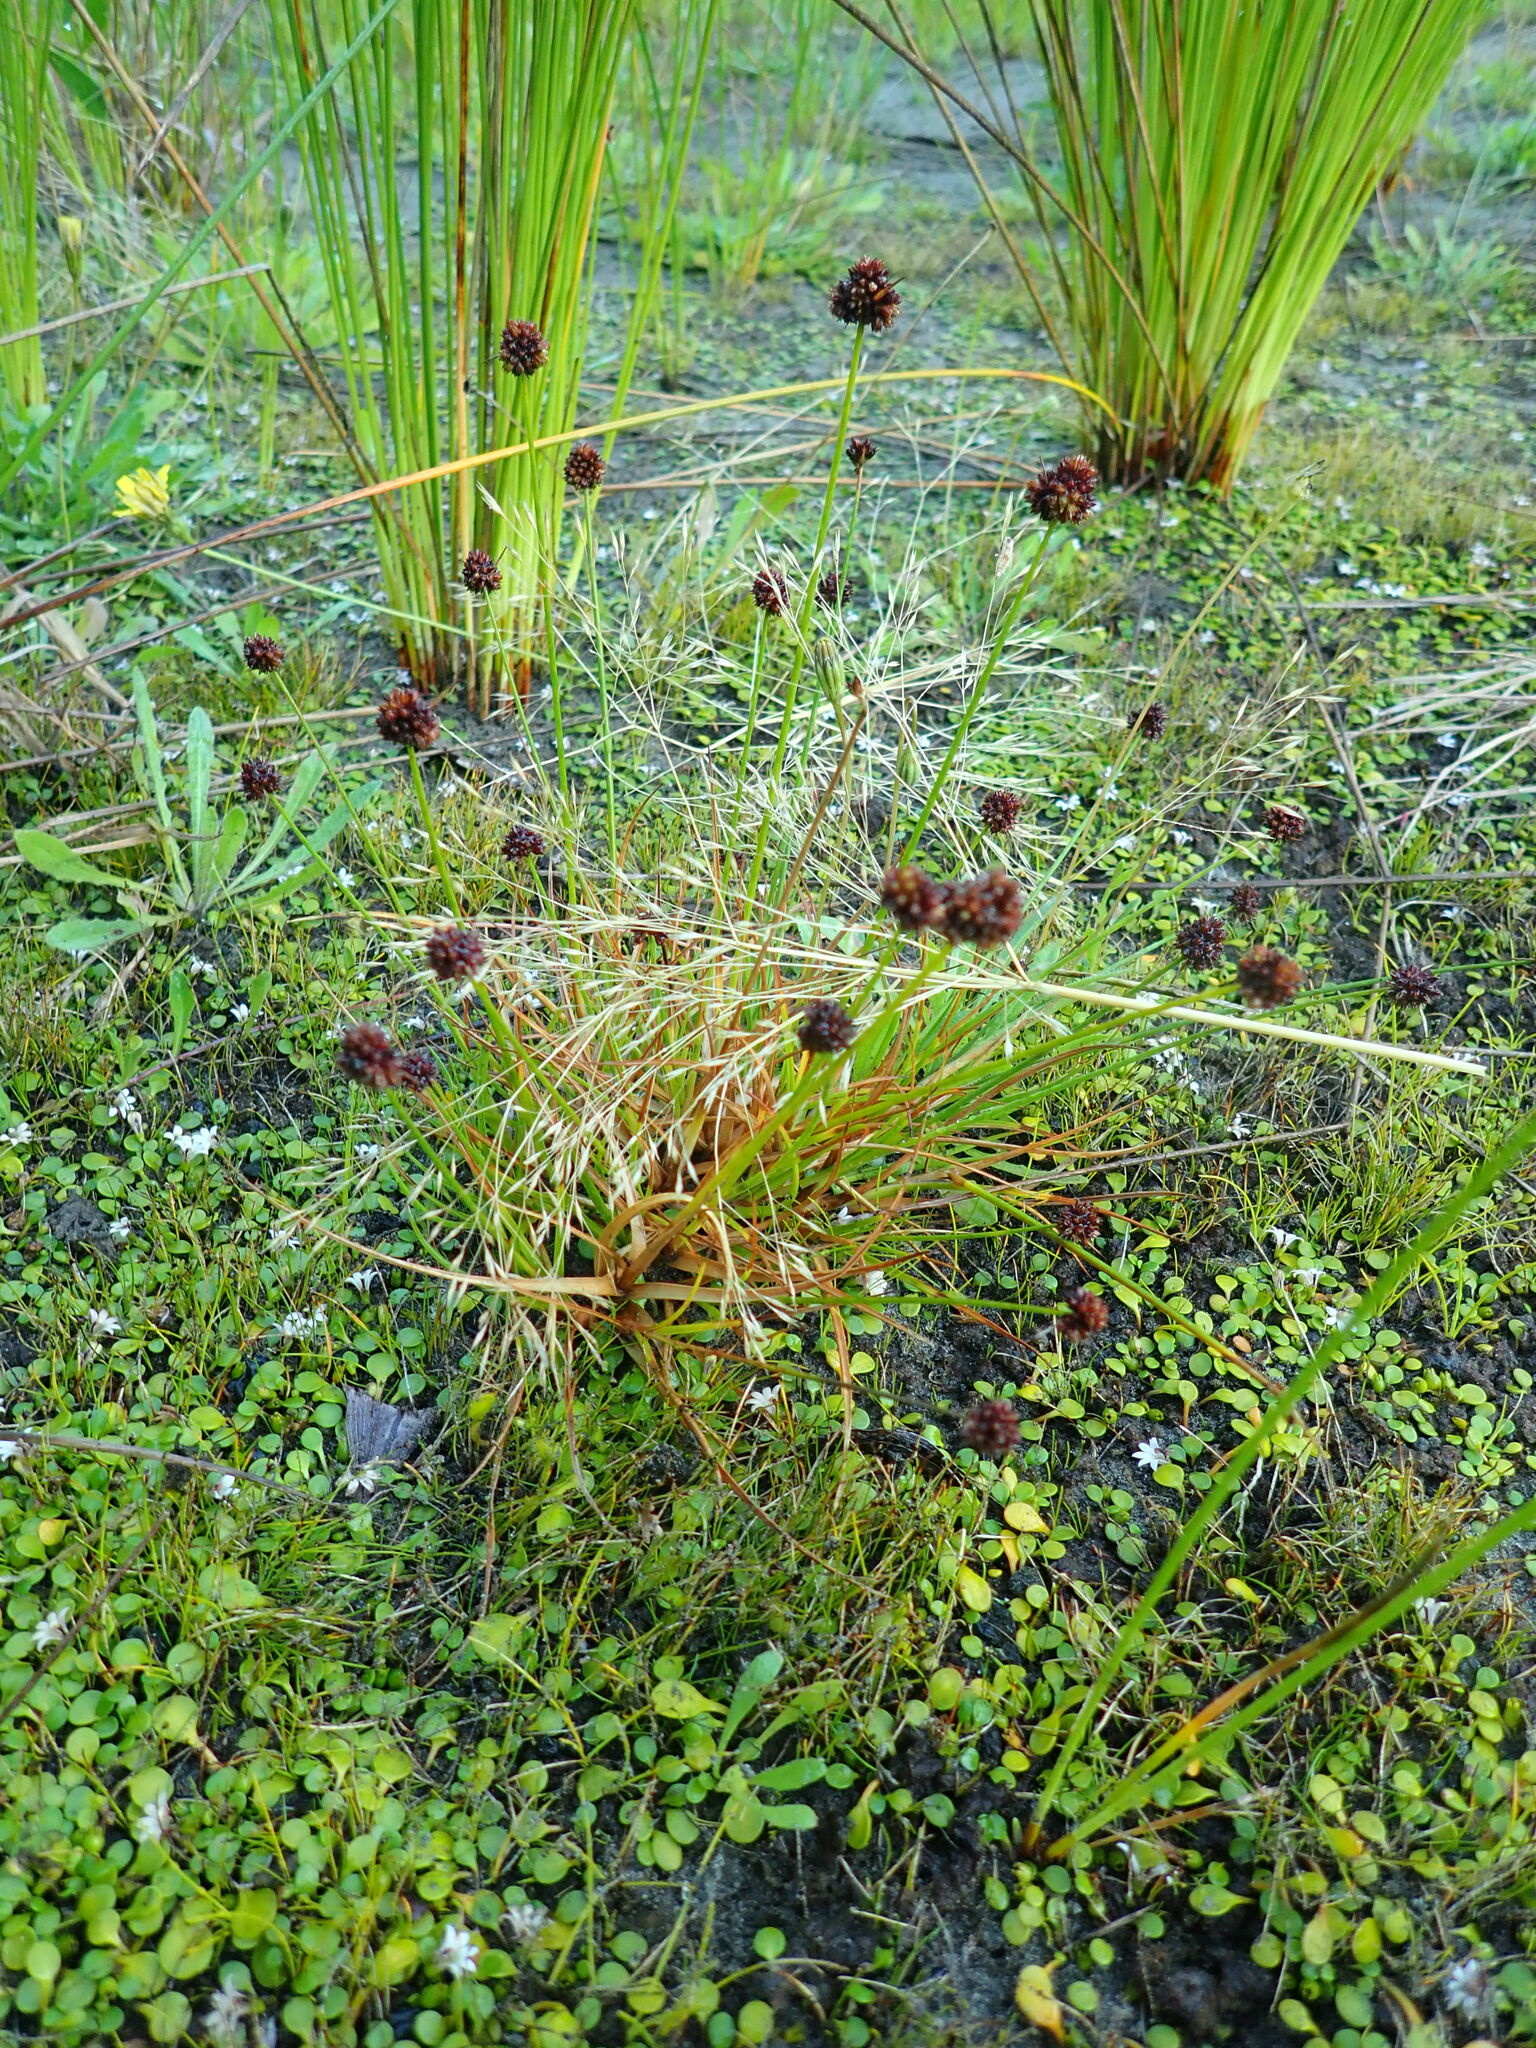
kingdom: Plantae
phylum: Tracheophyta
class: Liliopsida
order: Poales
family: Juncaceae
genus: Juncus
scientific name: Juncus caespiticius
